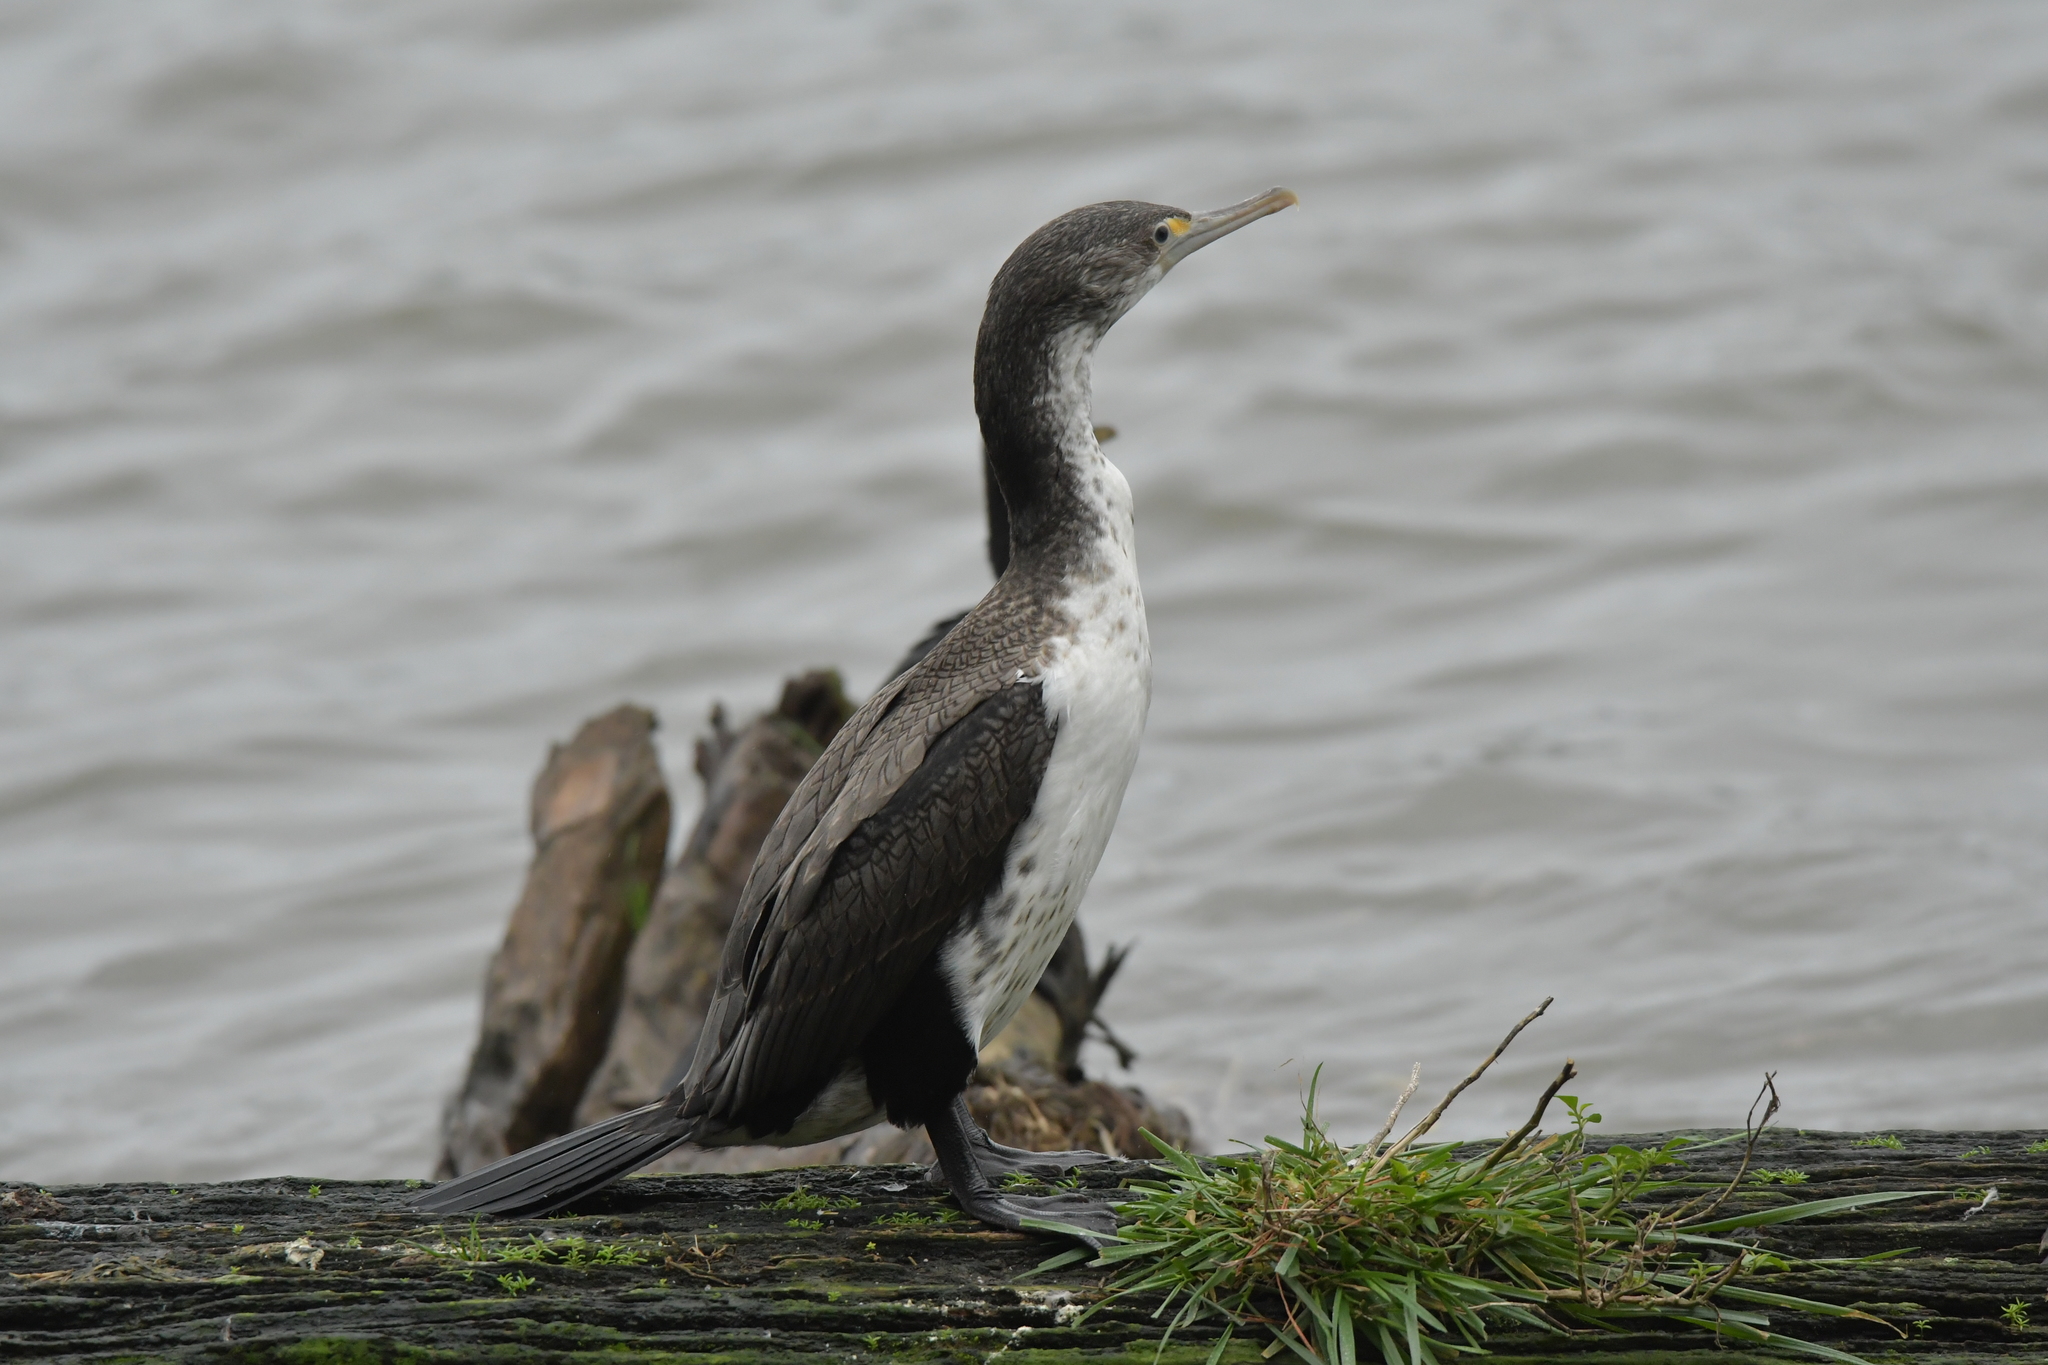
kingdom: Animalia
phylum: Chordata
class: Aves
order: Suliformes
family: Phalacrocoracidae
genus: Phalacrocorax
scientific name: Phalacrocorax varius
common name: Pied cormorant
